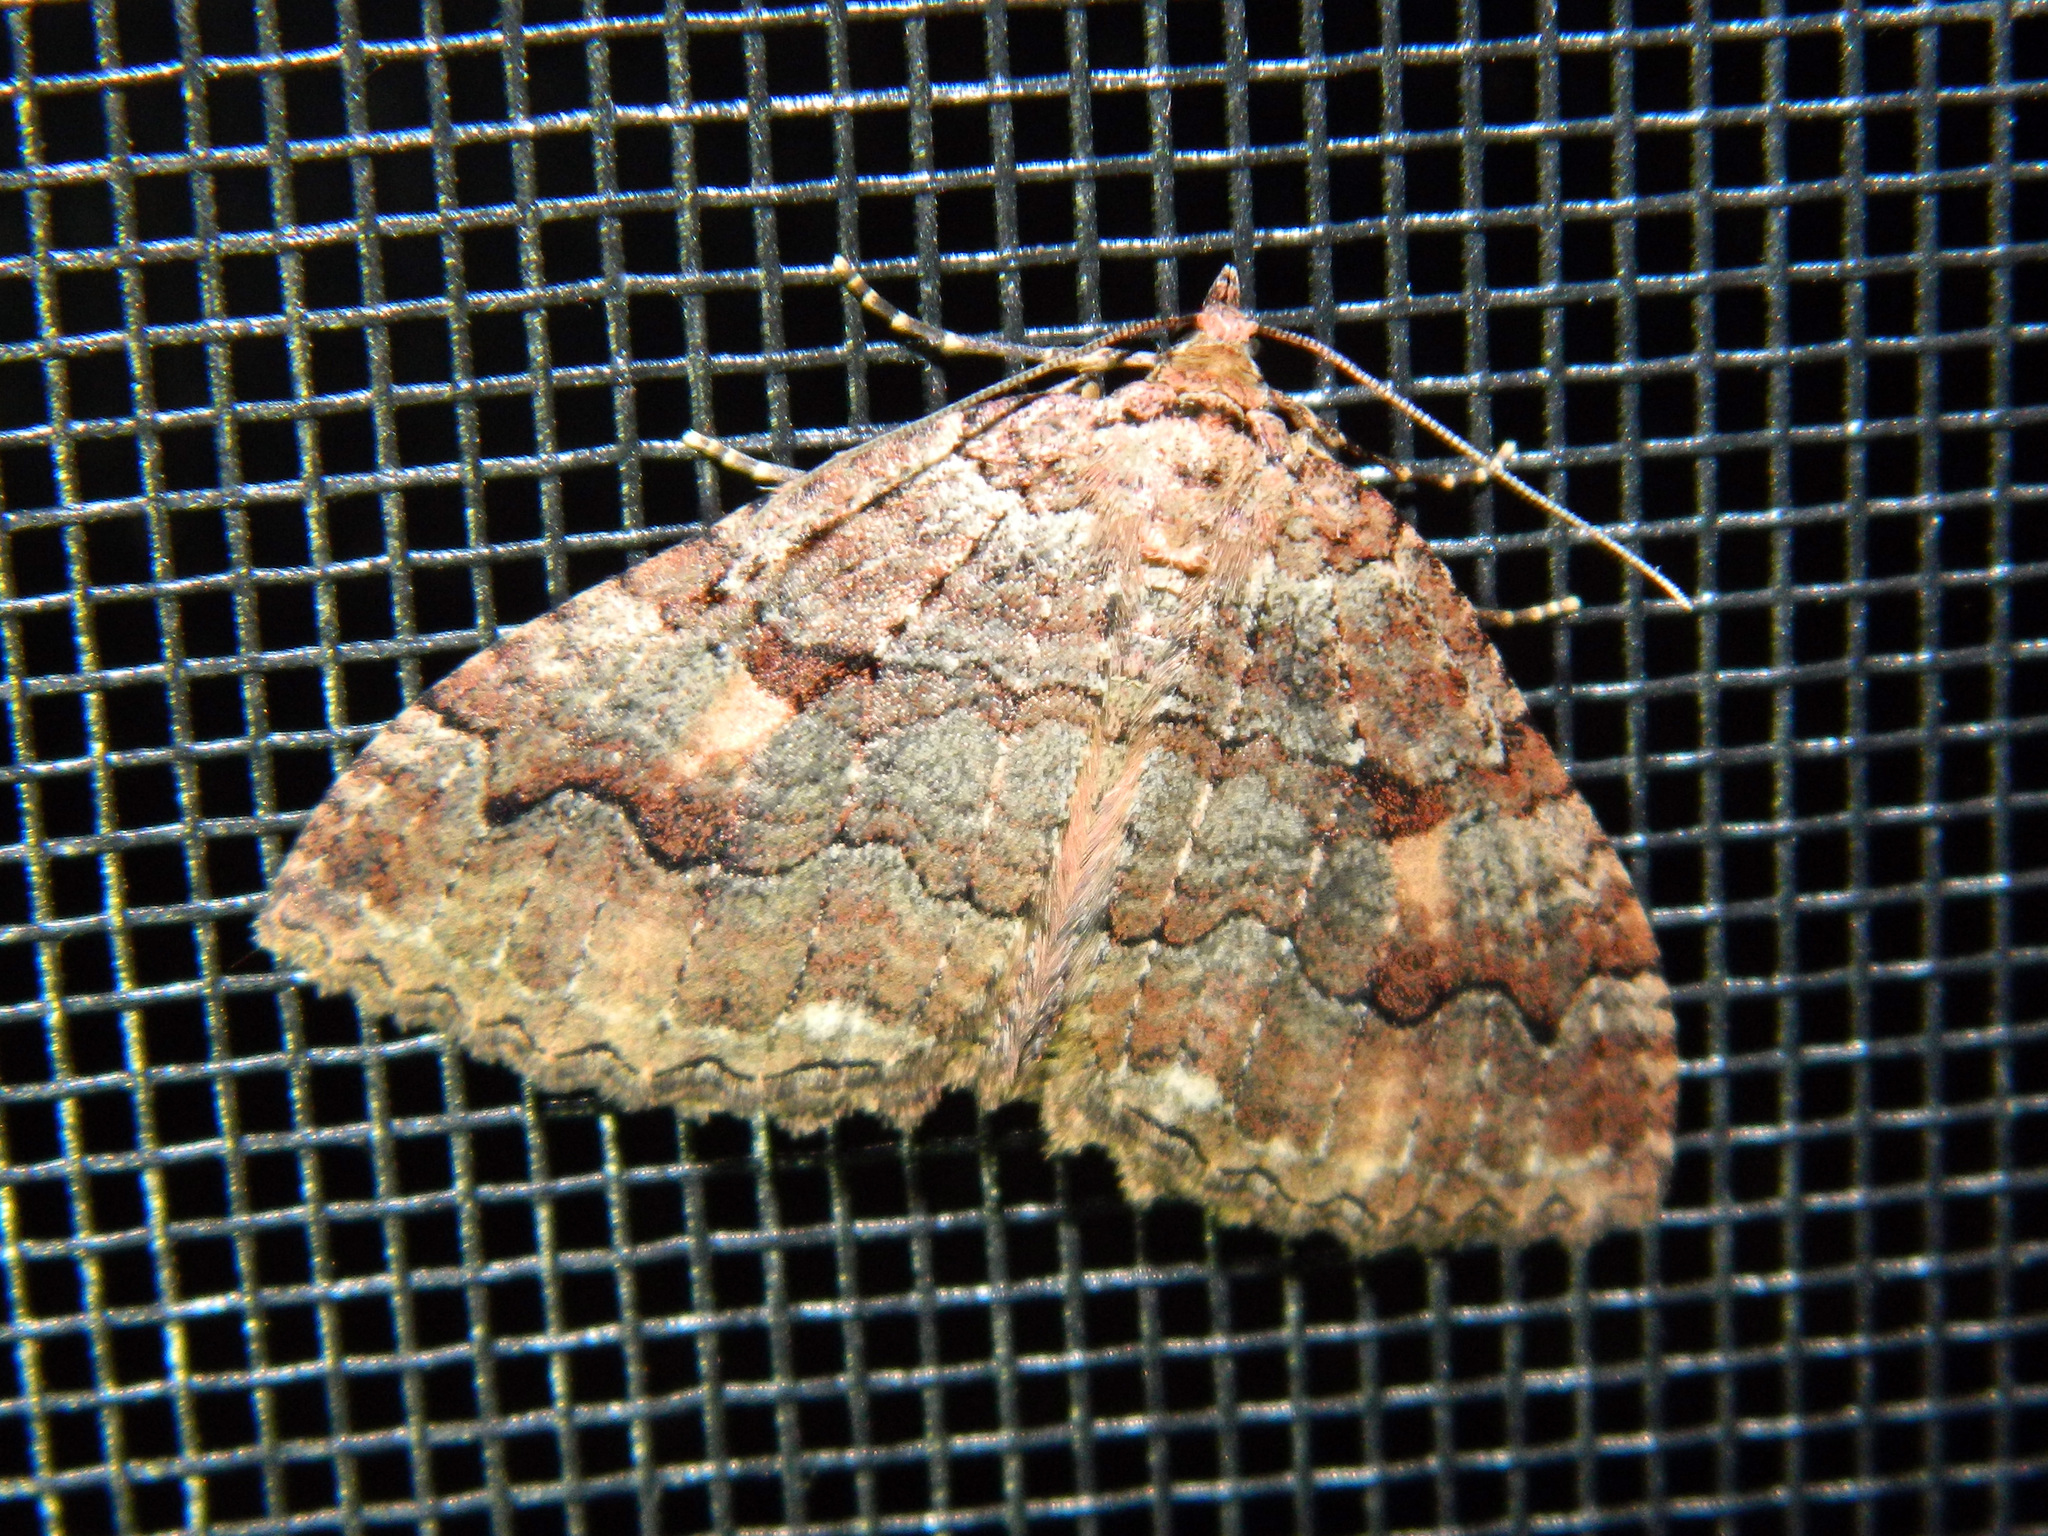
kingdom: Animalia
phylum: Arthropoda
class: Insecta
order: Lepidoptera
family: Geometridae
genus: Triphosa
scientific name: Triphosa haesitata
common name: Tissue moth
